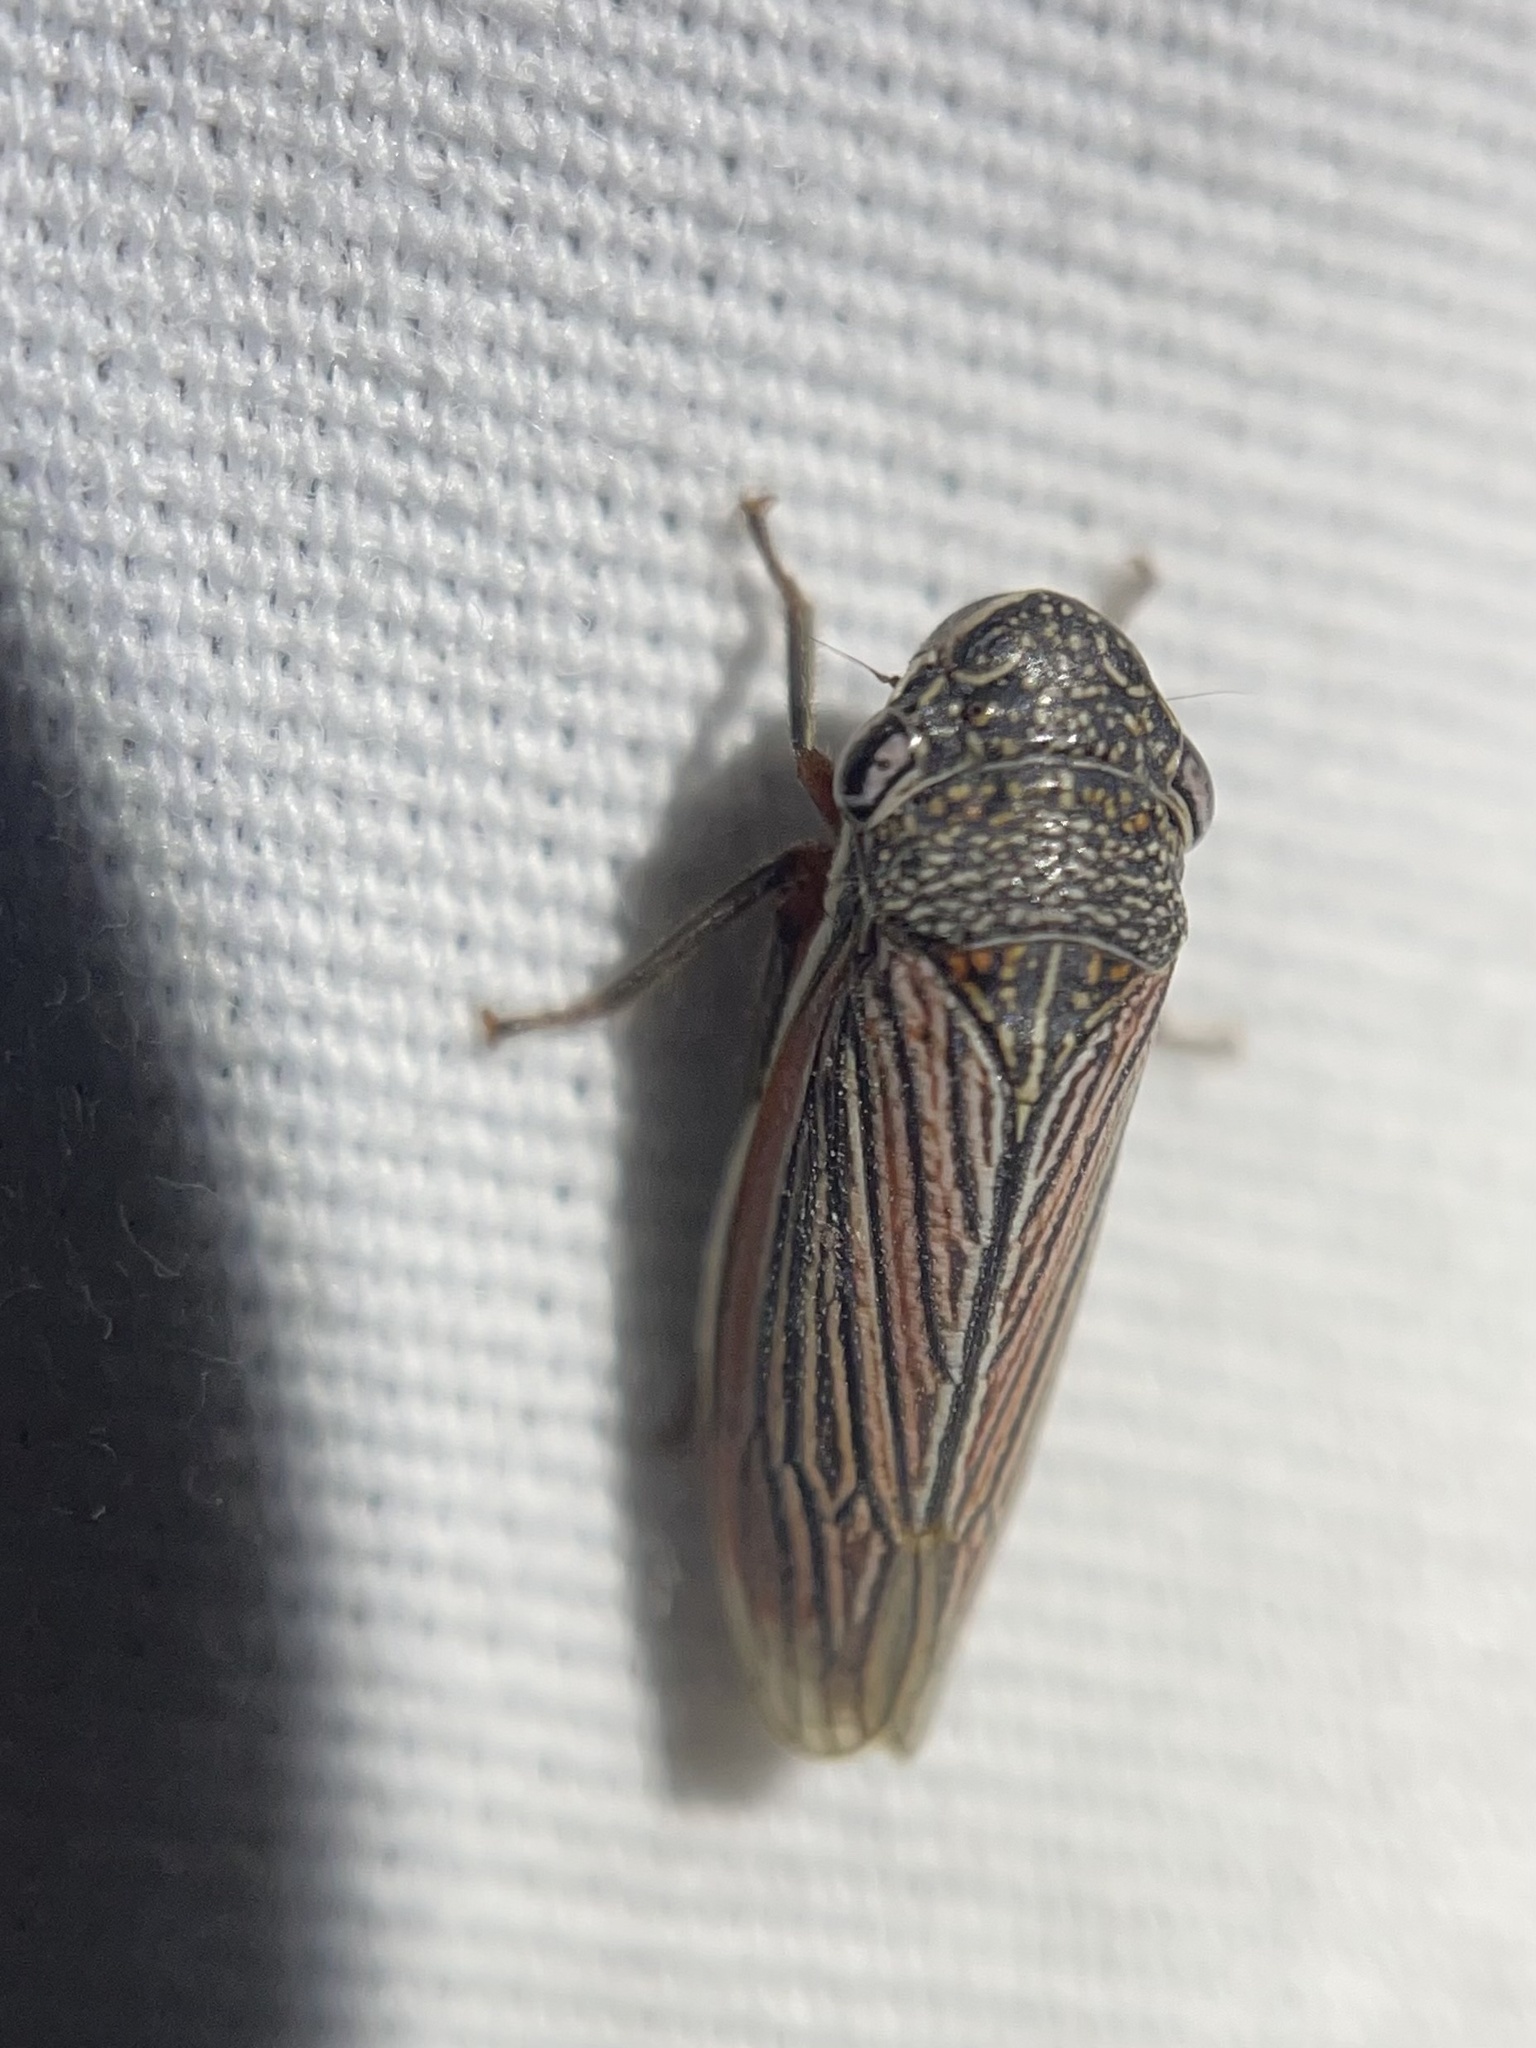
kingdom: Animalia
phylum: Arthropoda
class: Insecta
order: Hemiptera
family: Cicadellidae
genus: Cuerna
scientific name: Cuerna costalis
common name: Lateral-lined sharpshooter
